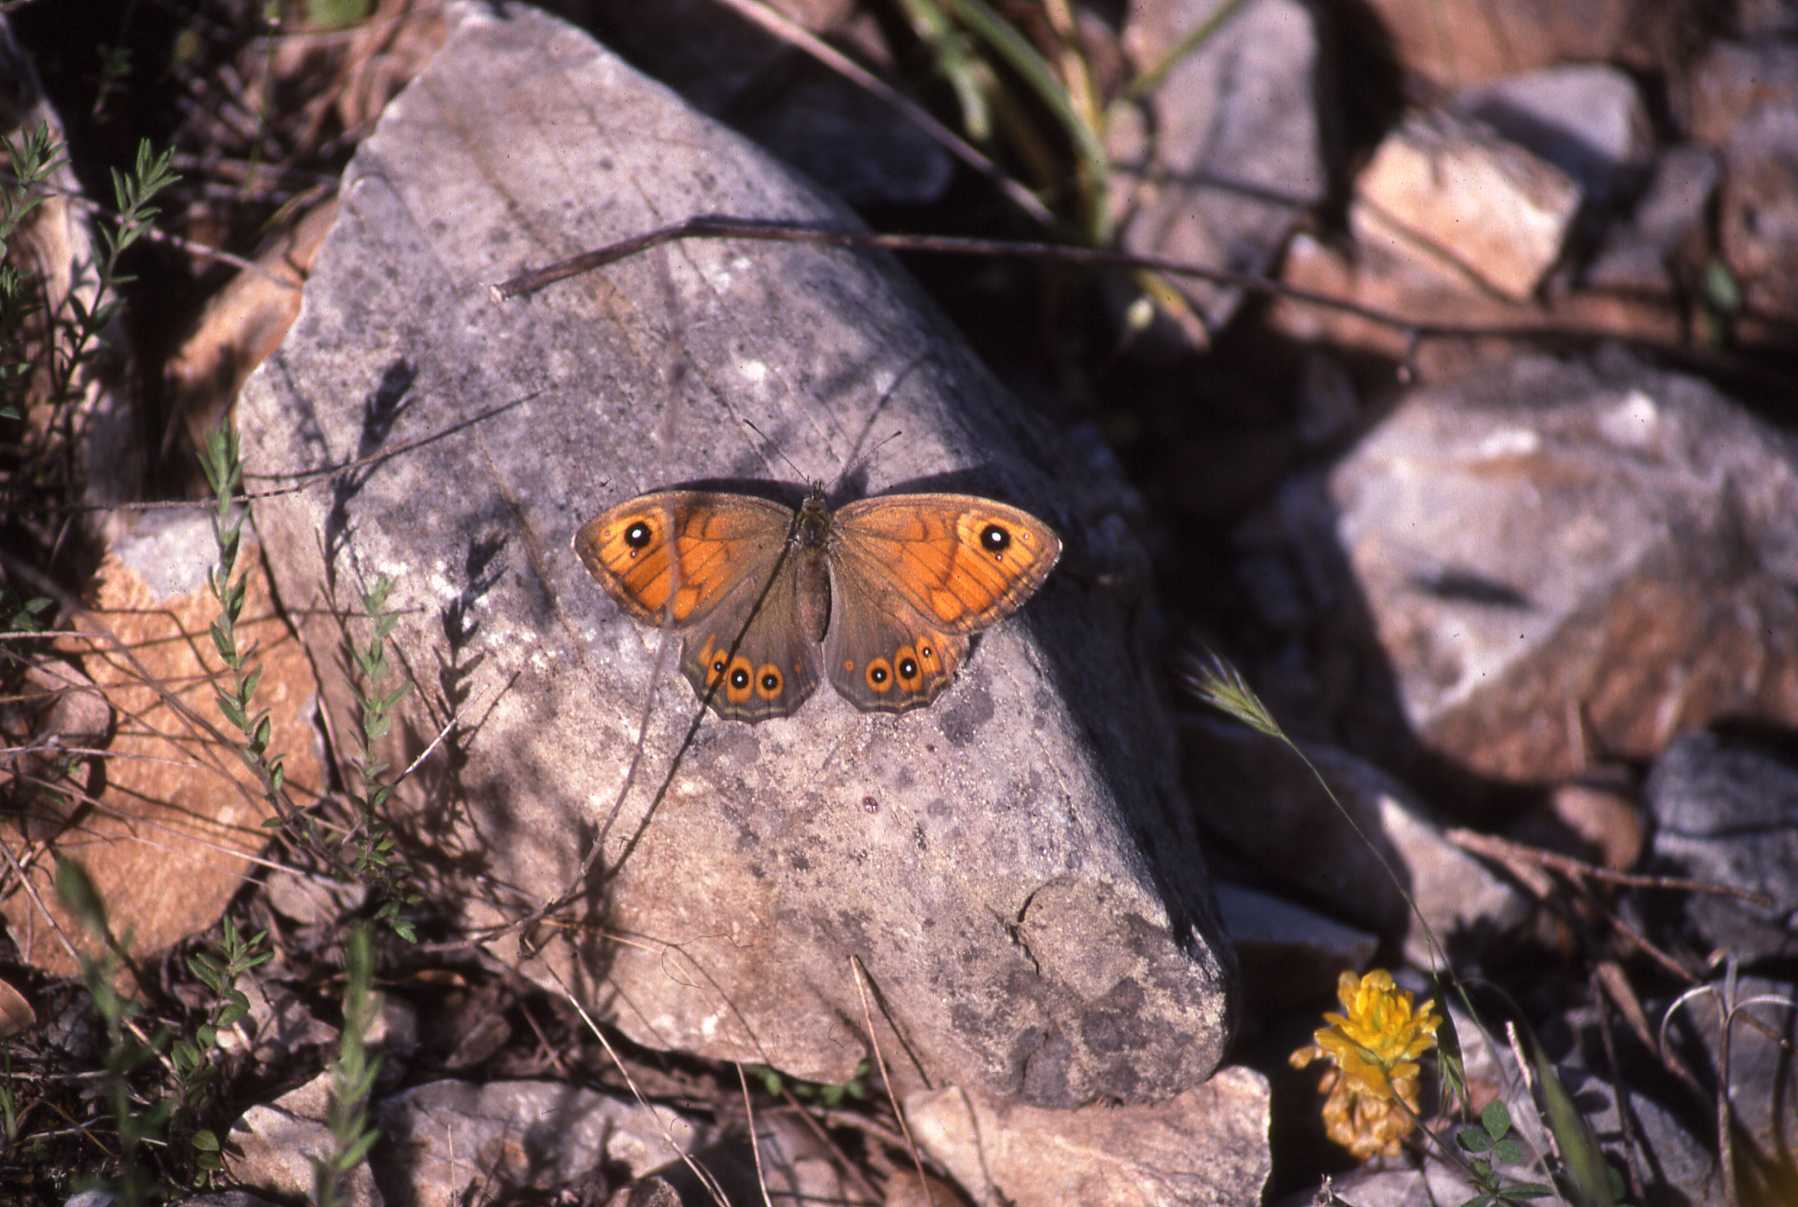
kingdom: Animalia
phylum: Arthropoda
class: Insecta
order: Lepidoptera
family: Nymphalidae
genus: Pararge
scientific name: Pararge Lasiommata maera
